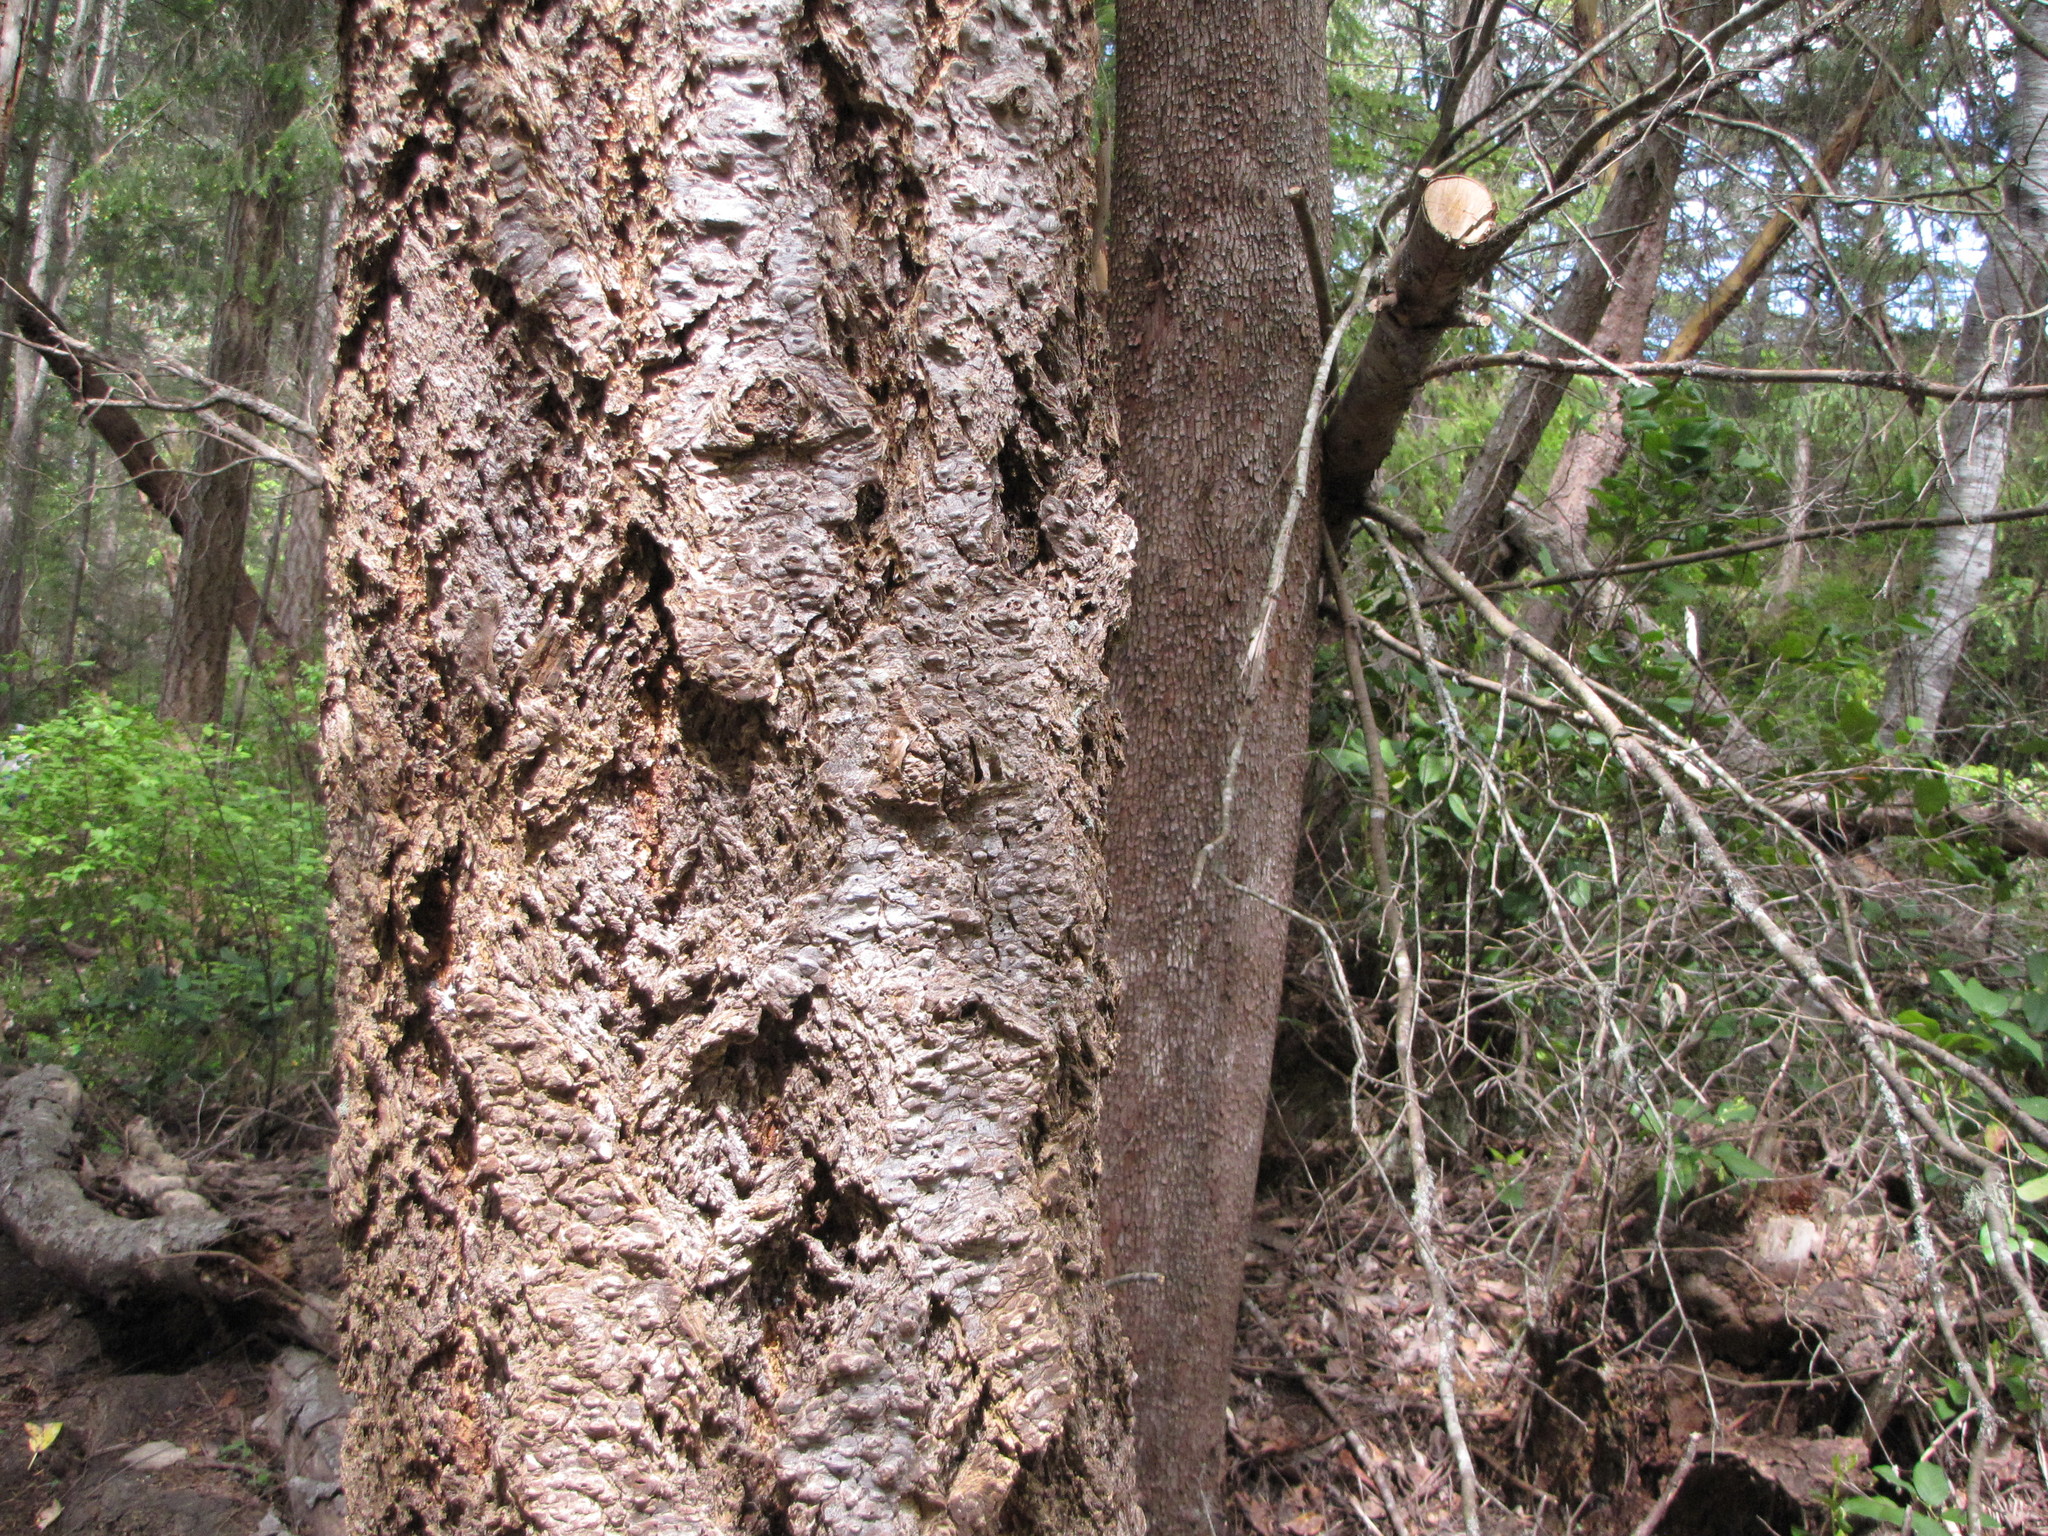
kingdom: Plantae
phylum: Tracheophyta
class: Pinopsida
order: Pinales
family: Pinaceae
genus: Pseudotsuga
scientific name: Pseudotsuga menziesii
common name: Douglas fir
